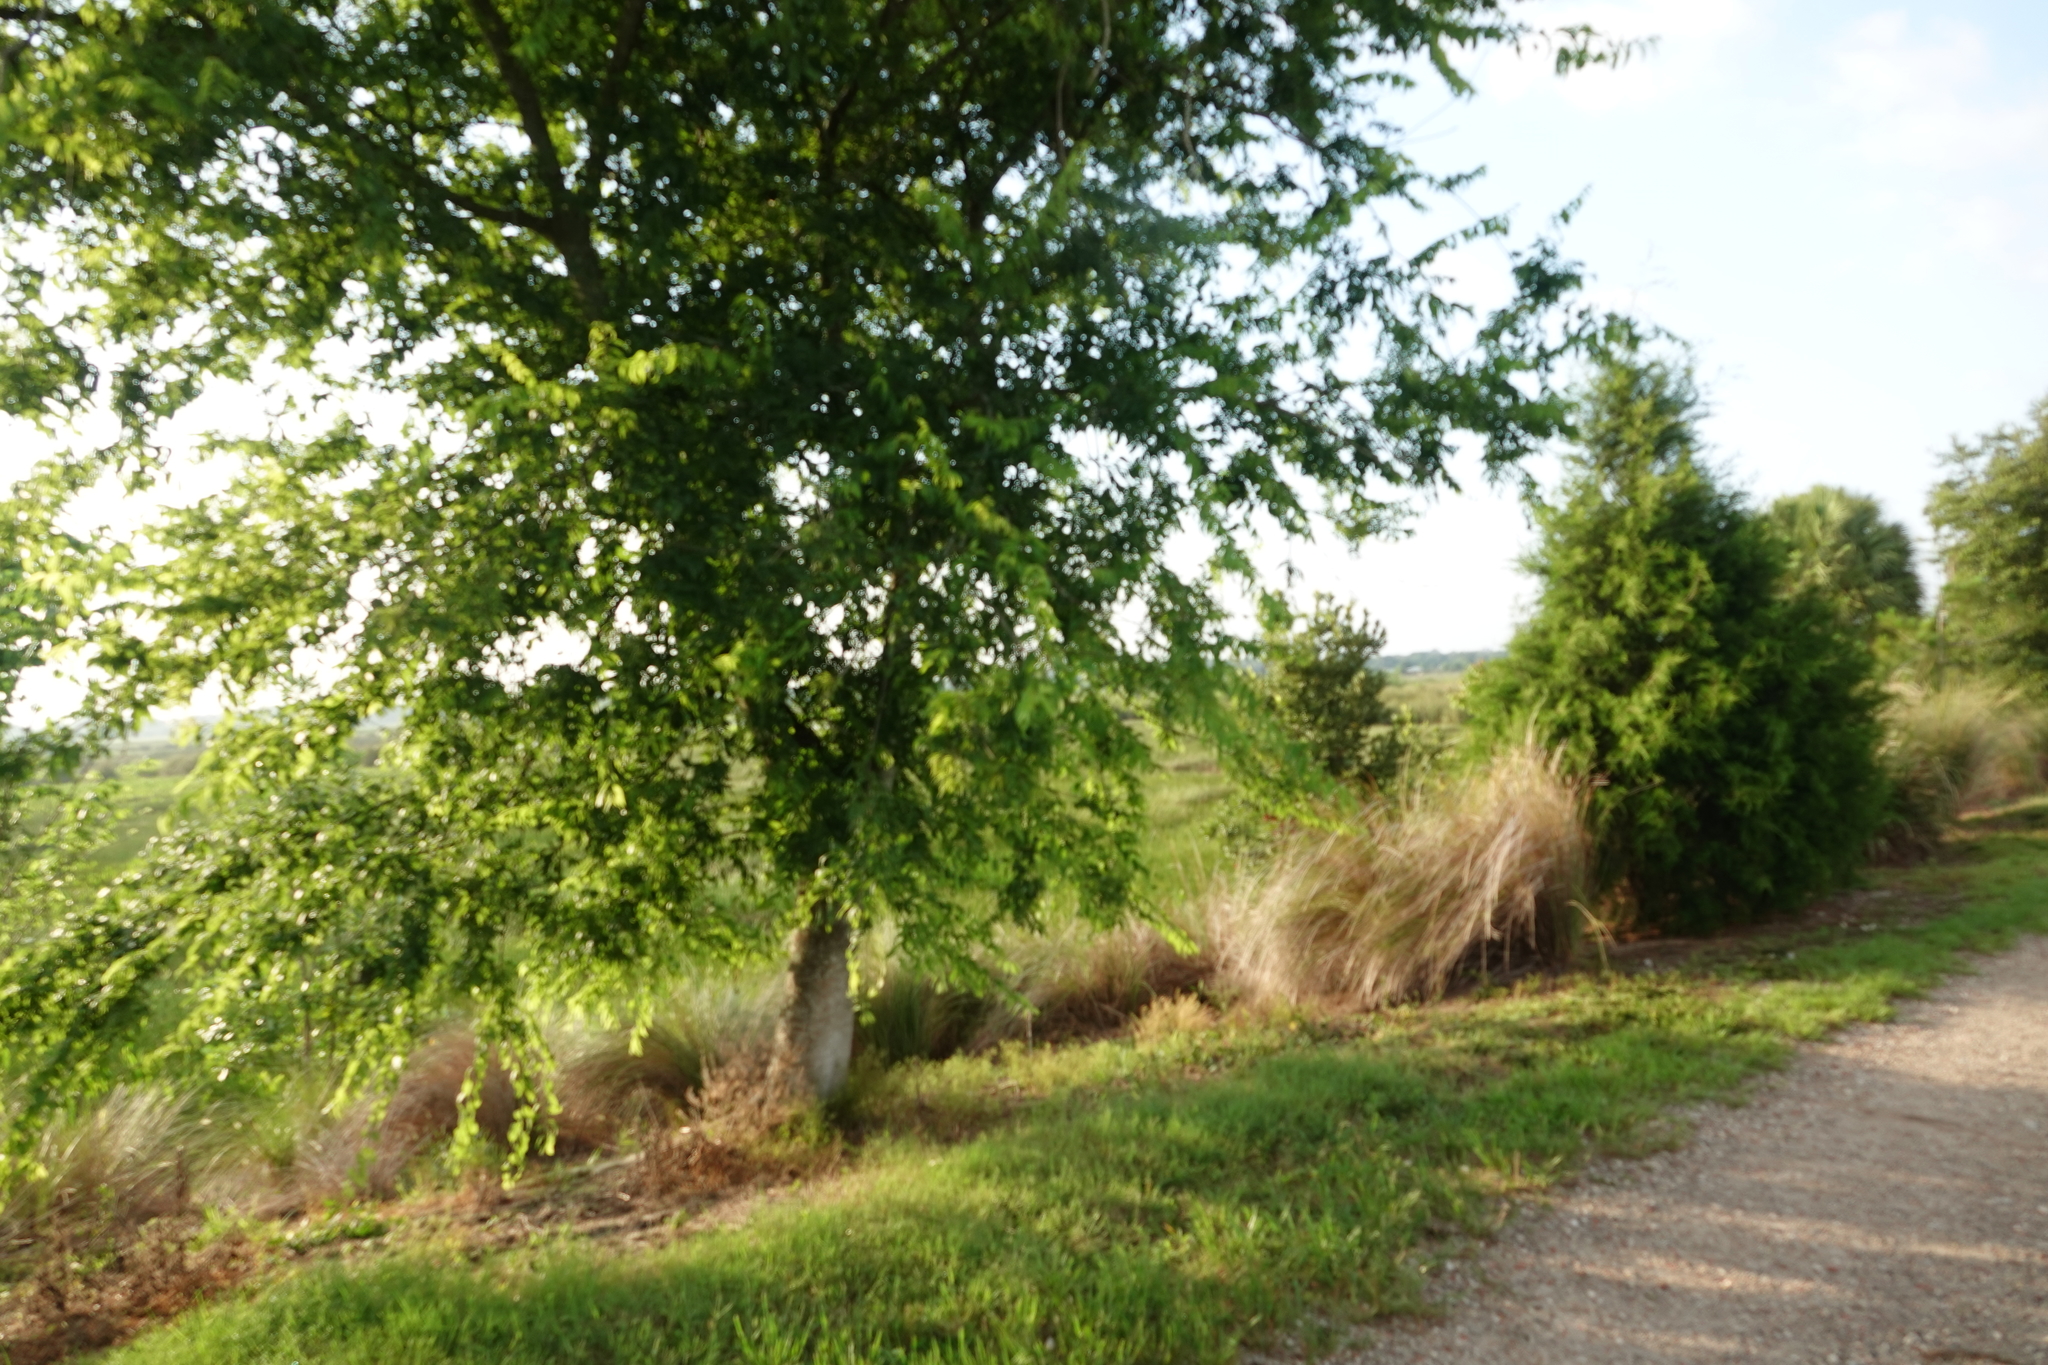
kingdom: Plantae
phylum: Tracheophyta
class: Magnoliopsida
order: Rosales
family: Cannabaceae
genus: Celtis
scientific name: Celtis laevigata
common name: Sugarberry
